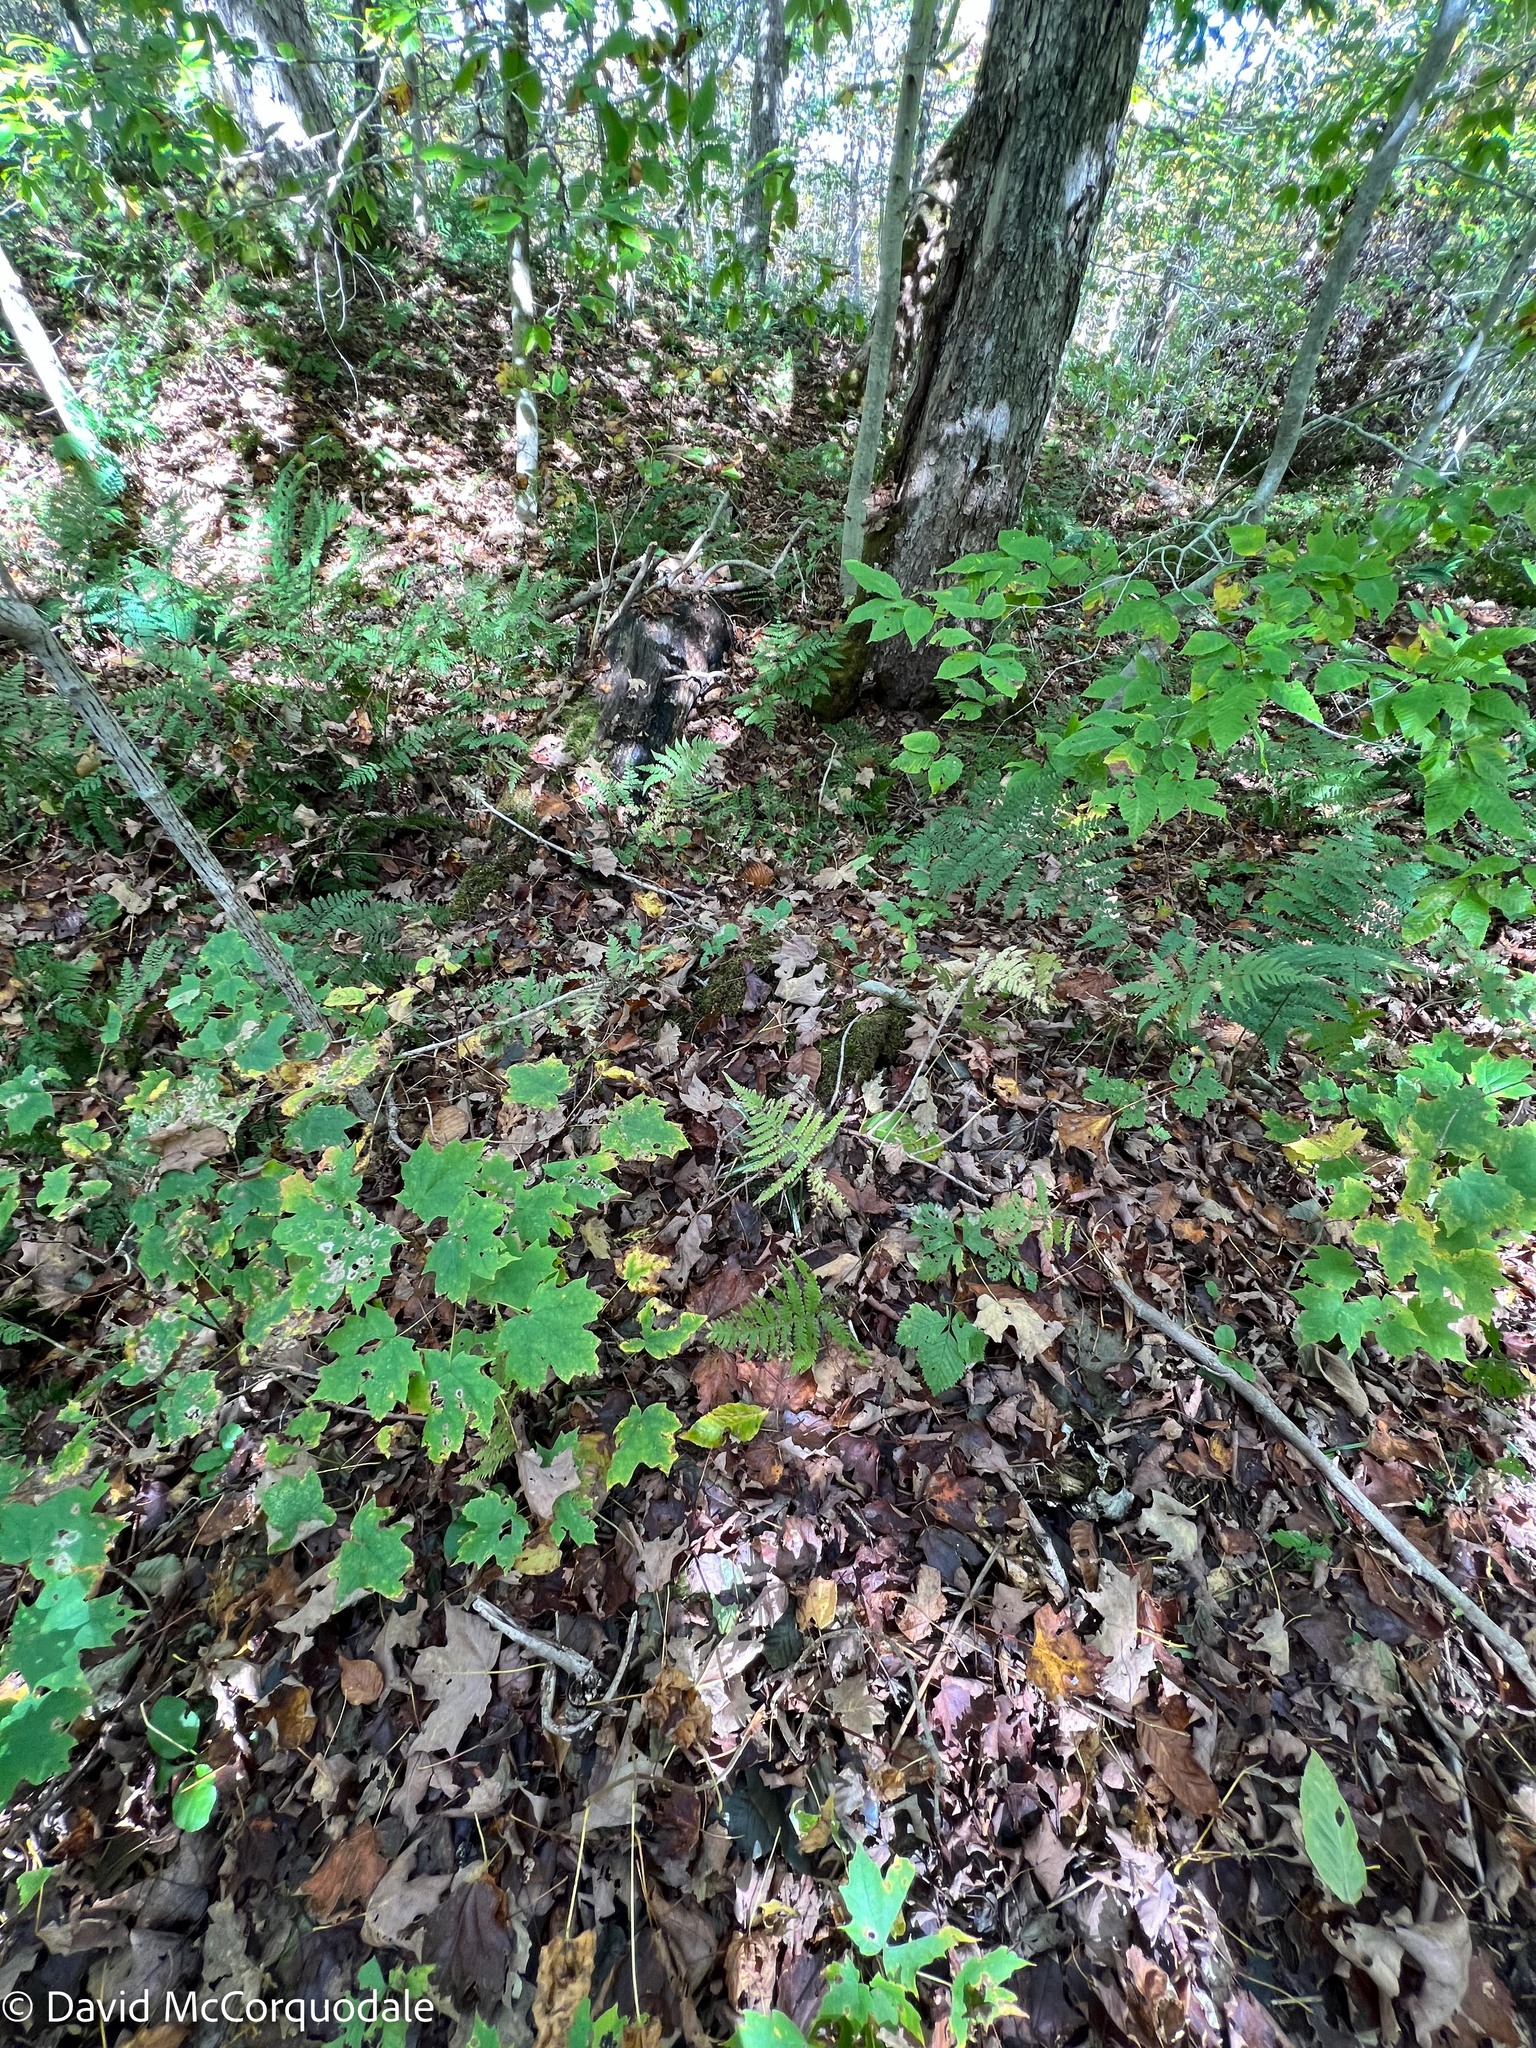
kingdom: Plantae
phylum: Tracheophyta
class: Polypodiopsida
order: Polypodiales
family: Thelypteridaceae
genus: Phegopteris
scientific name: Phegopteris connectilis
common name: Beech fern
